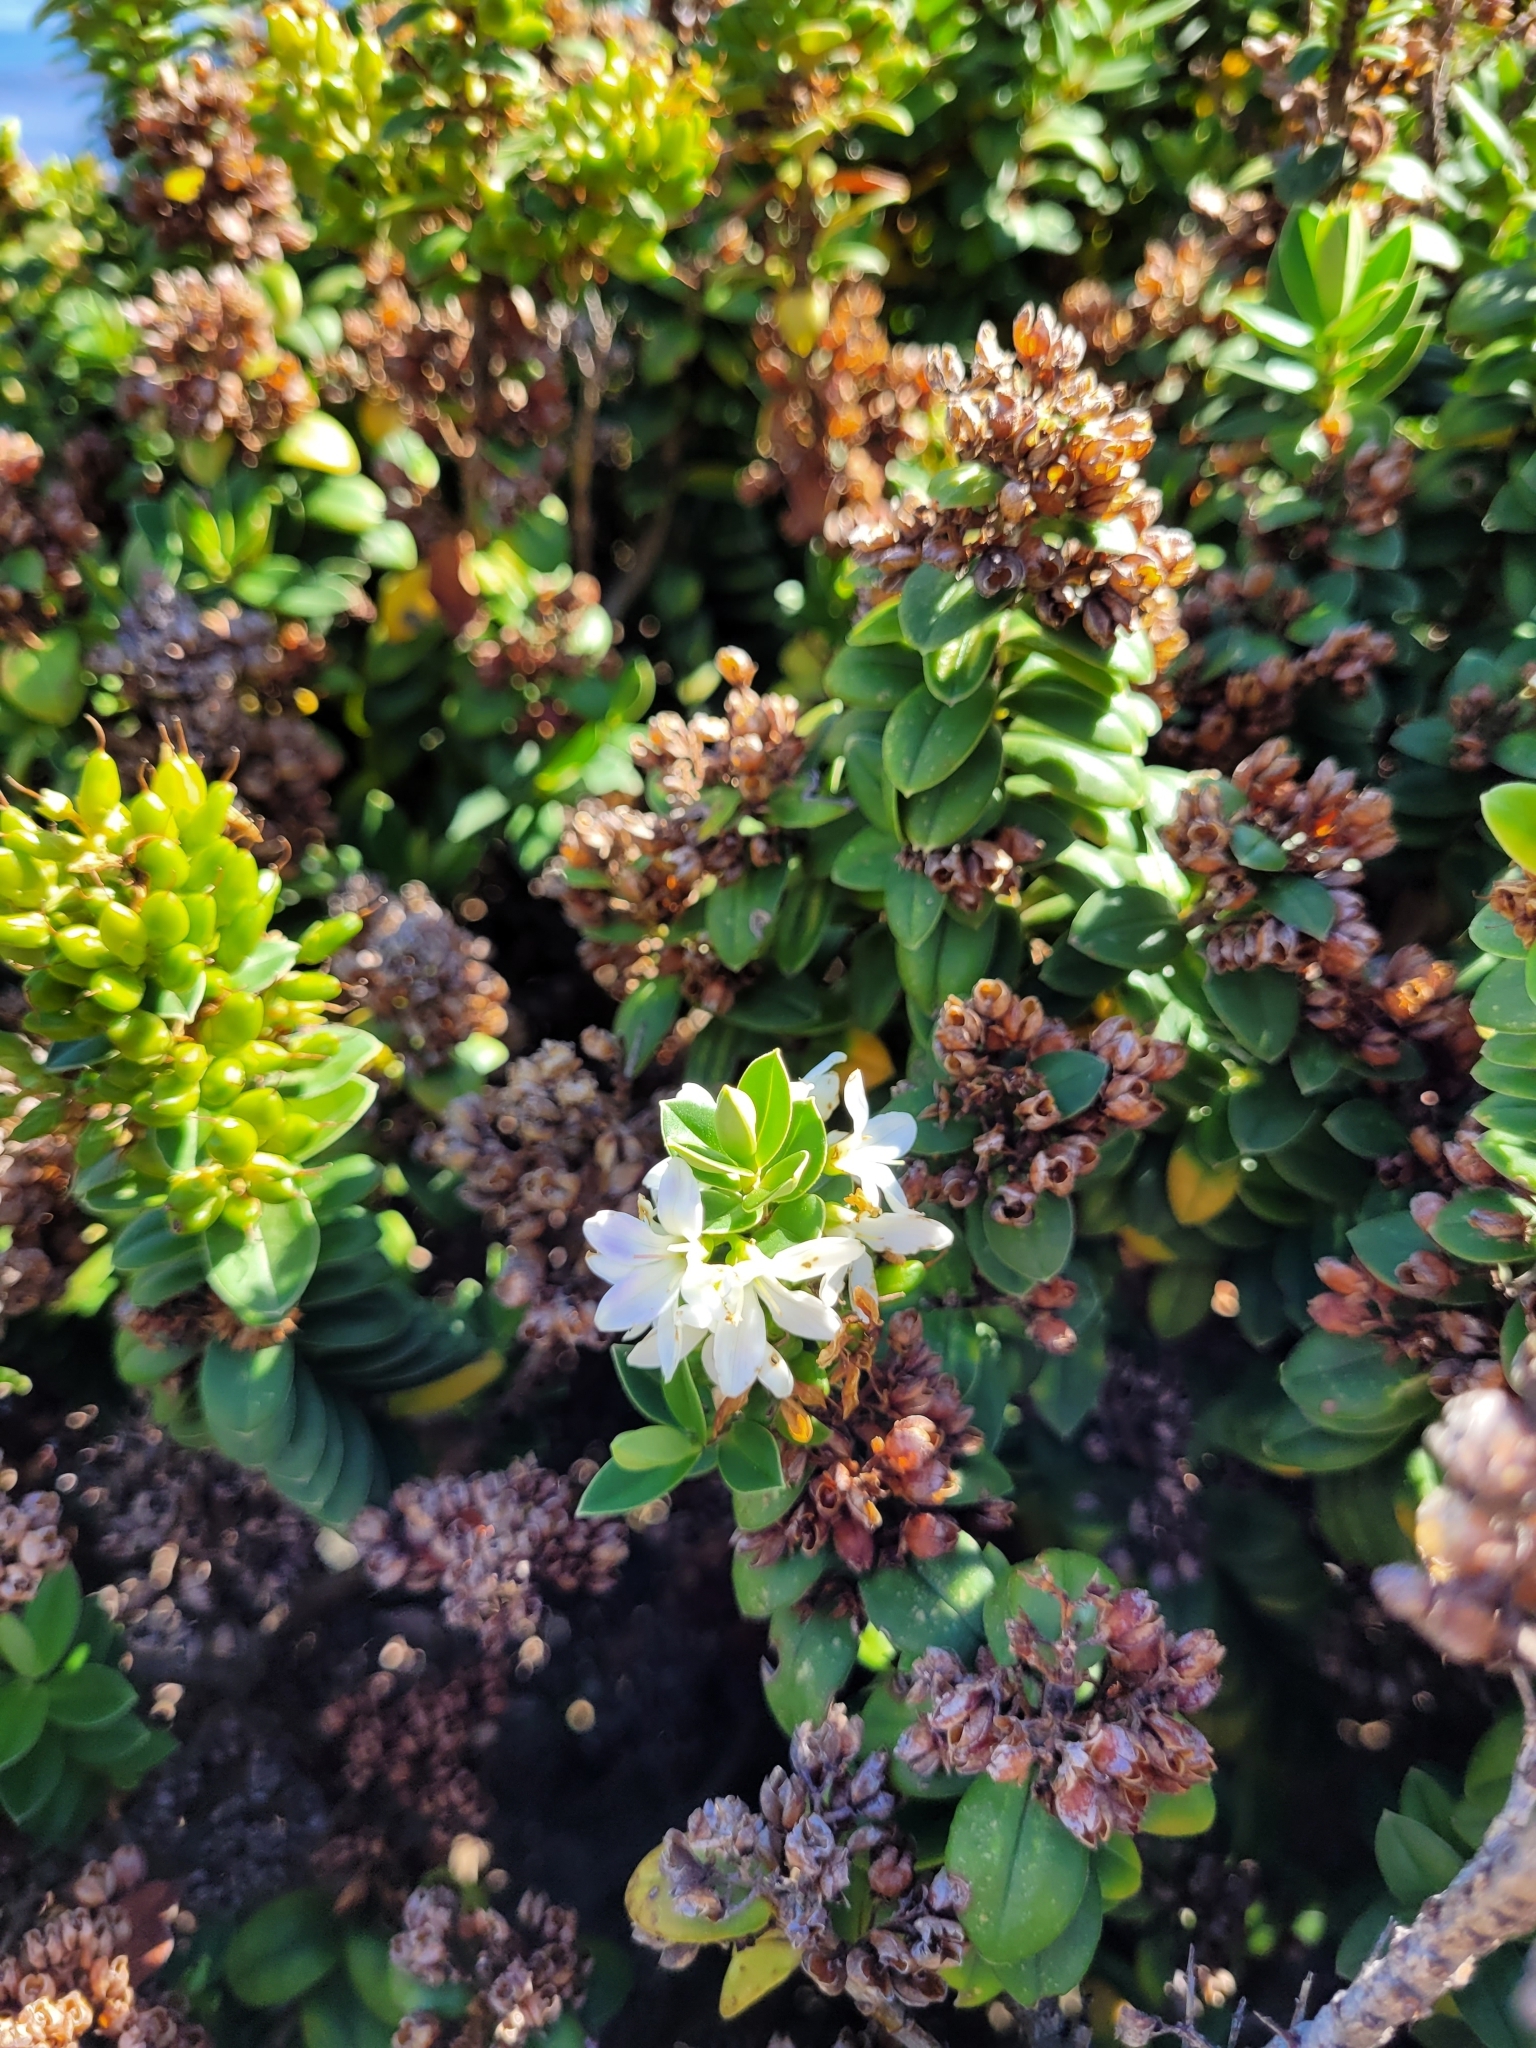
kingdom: Plantae
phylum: Tracheophyta
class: Magnoliopsida
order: Lamiales
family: Plantaginaceae
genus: Veronica
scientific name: Veronica elliptica
